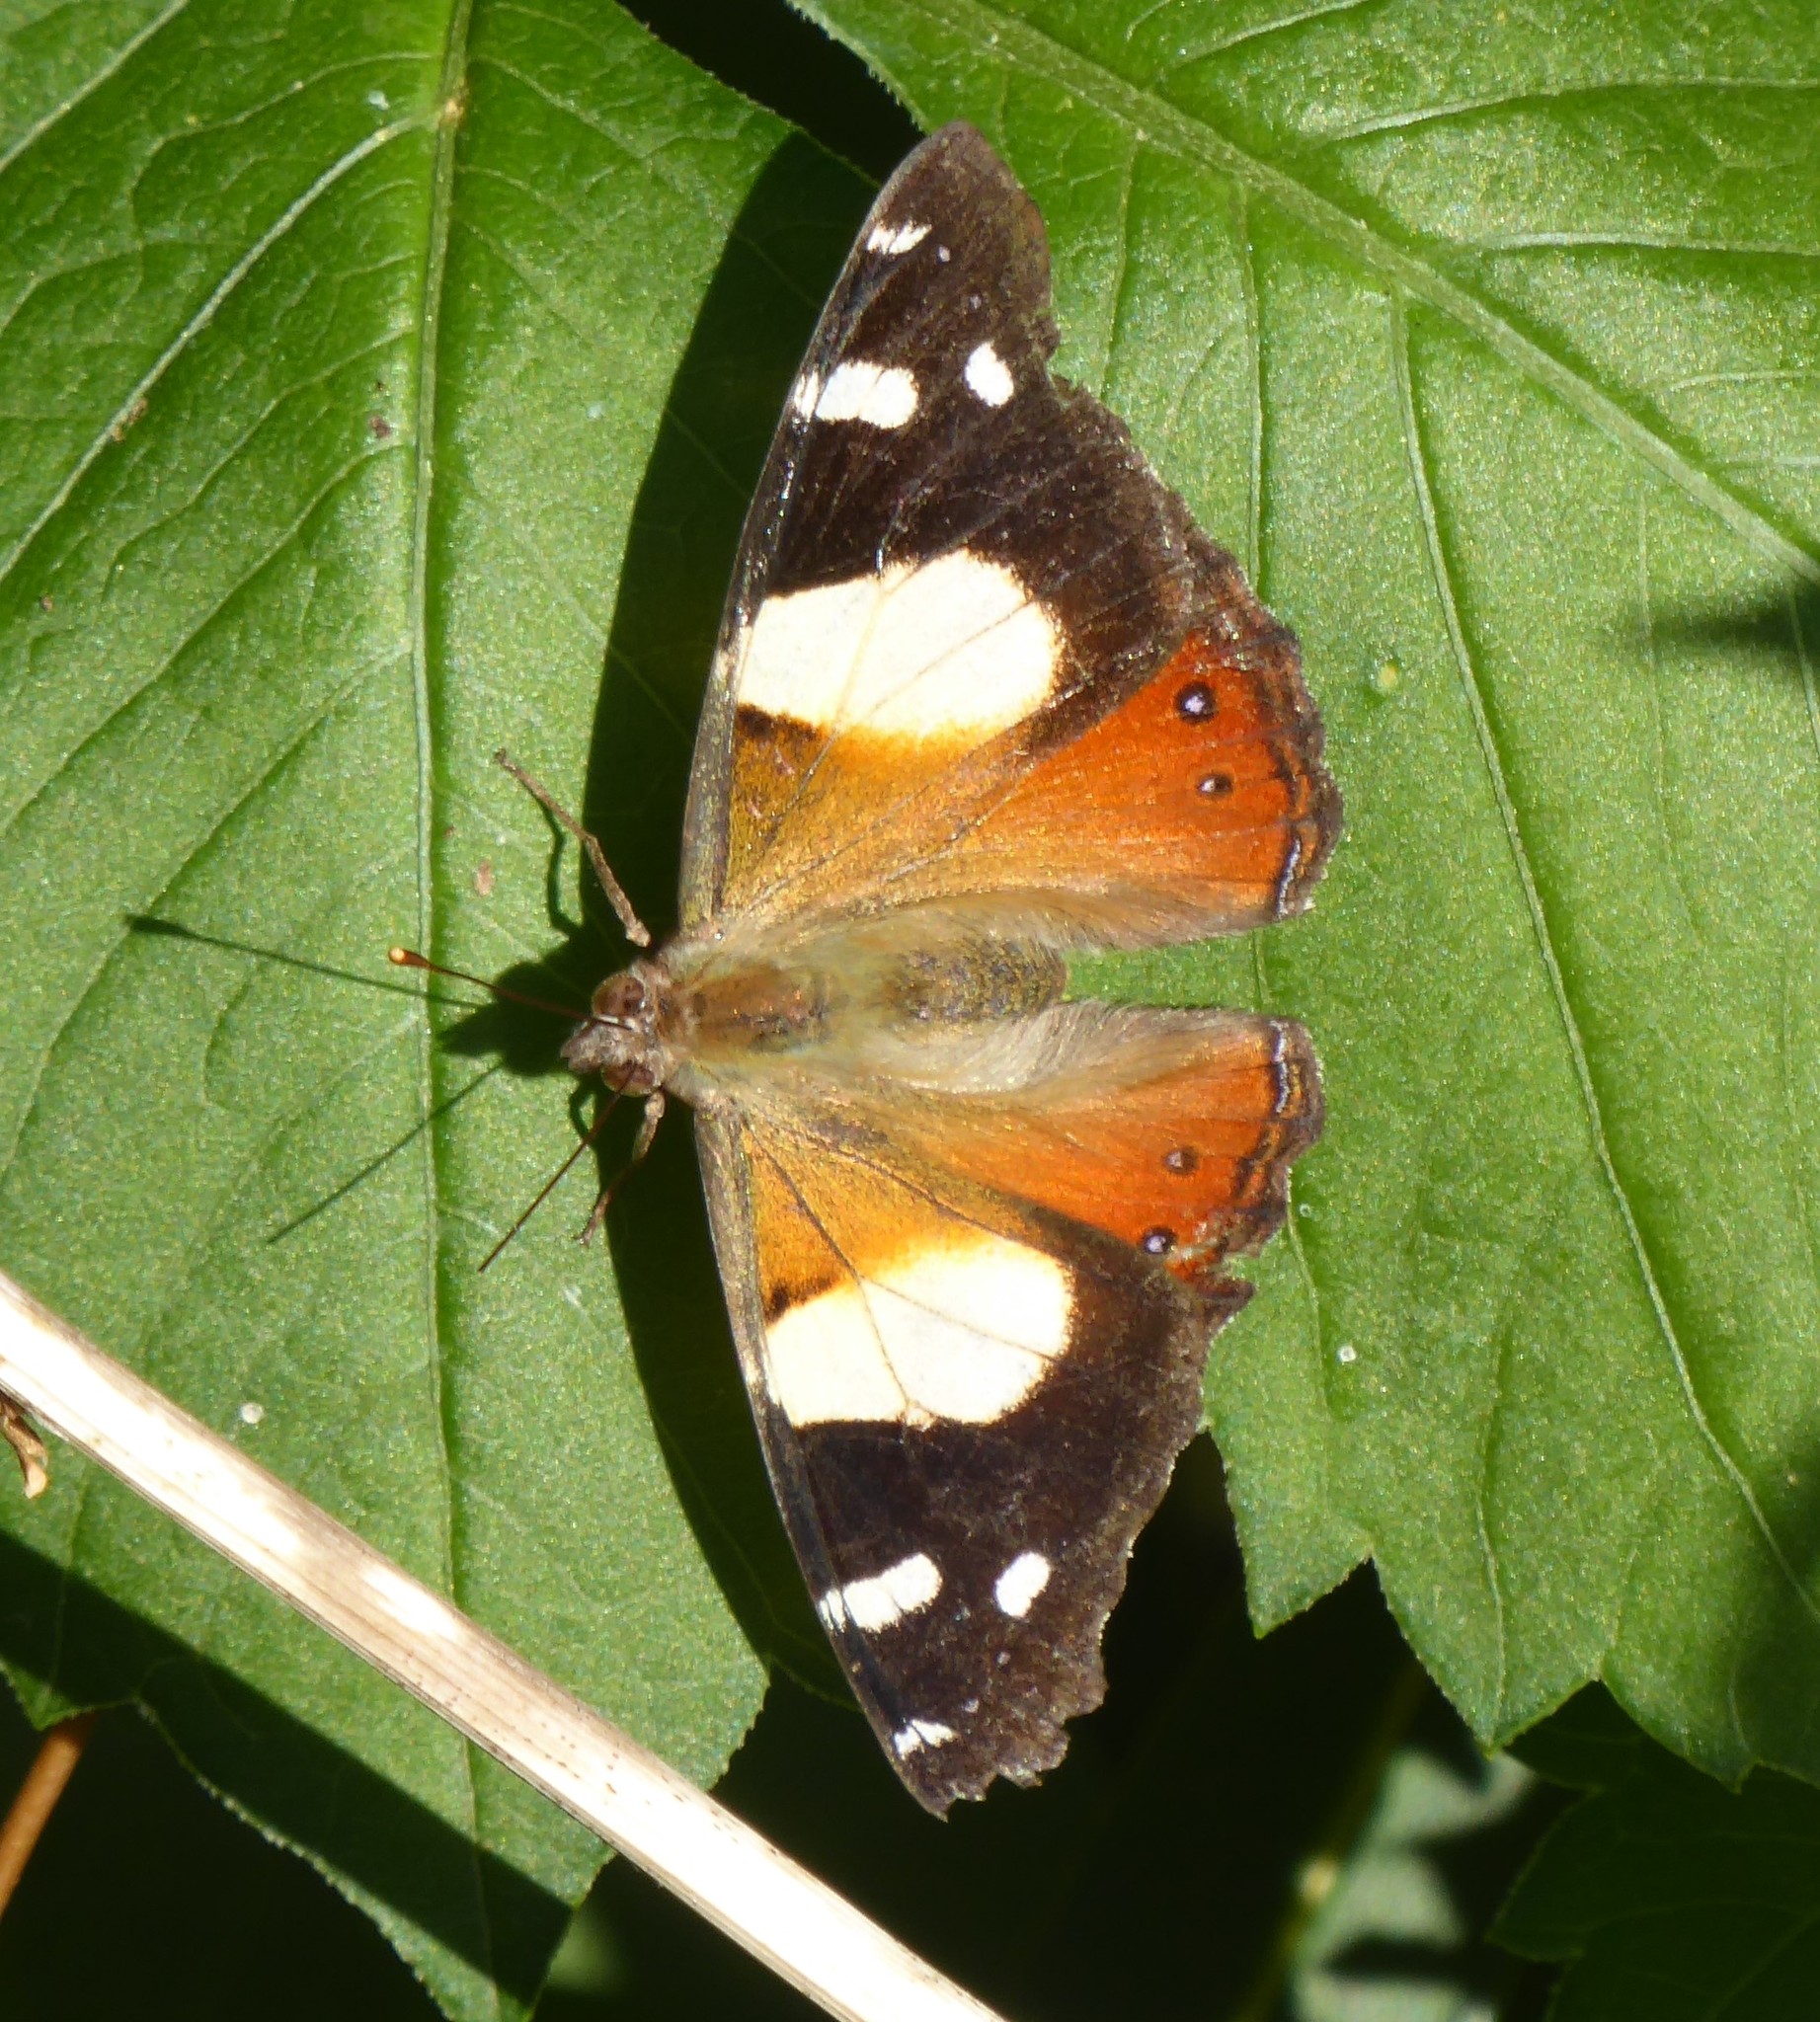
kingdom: Animalia
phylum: Arthropoda
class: Insecta
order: Lepidoptera
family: Nymphalidae
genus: Vanessa
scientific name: Vanessa itea
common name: Yellow admiral
